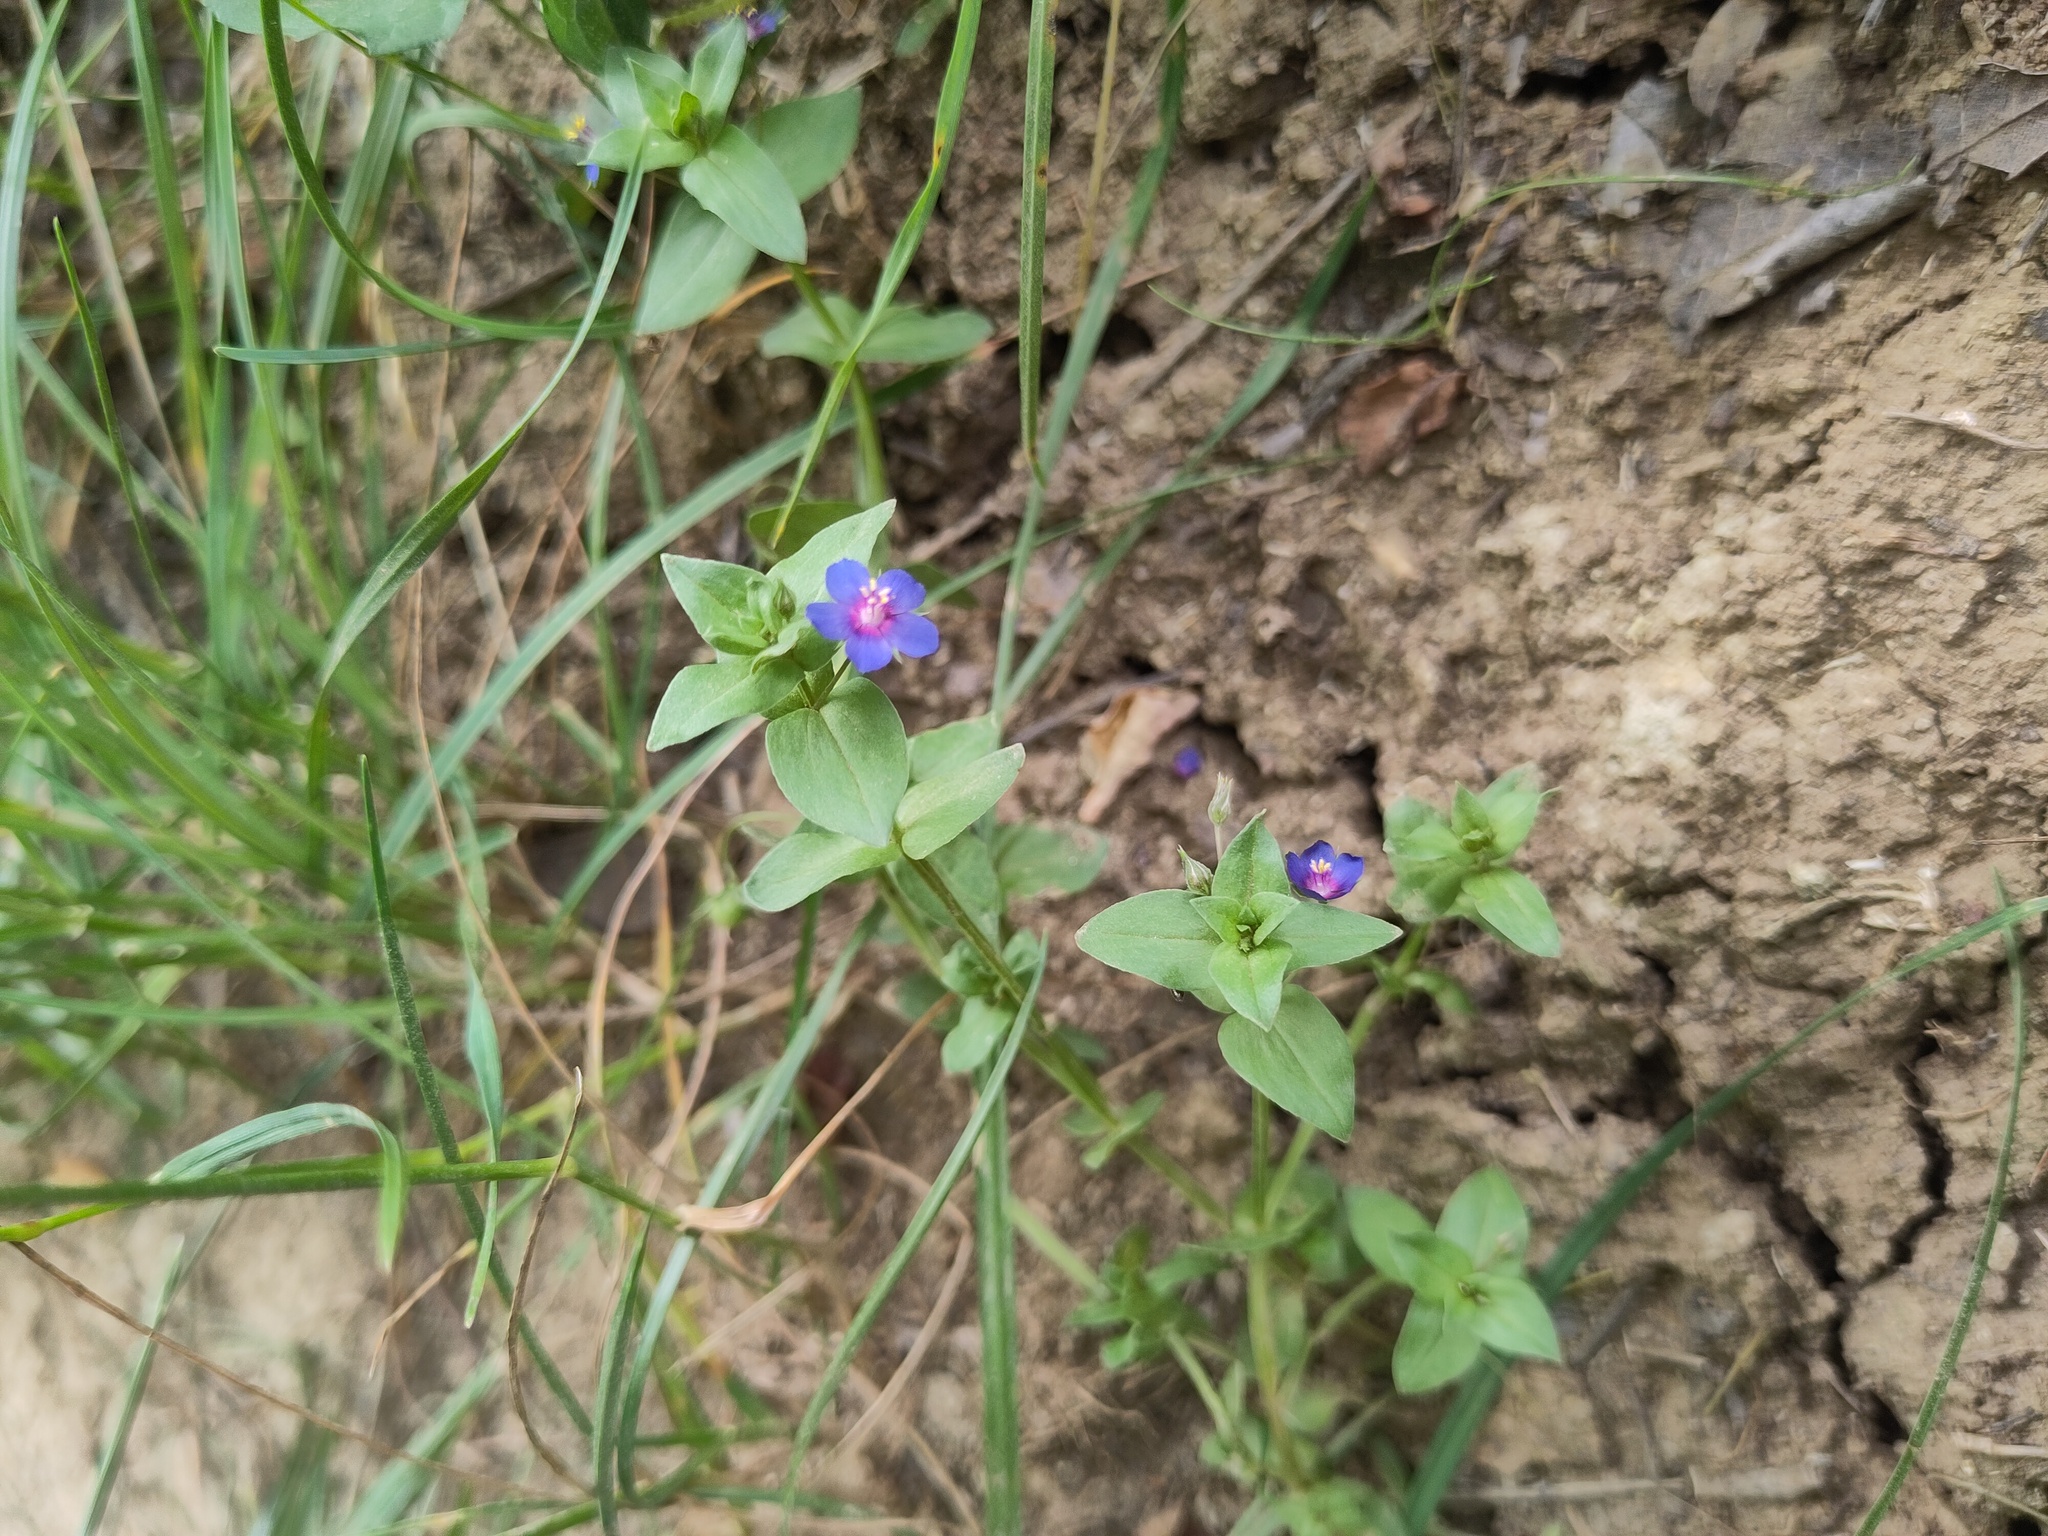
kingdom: Plantae
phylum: Tracheophyta
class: Magnoliopsida
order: Ericales
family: Primulaceae
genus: Lysimachia
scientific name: Lysimachia foemina
